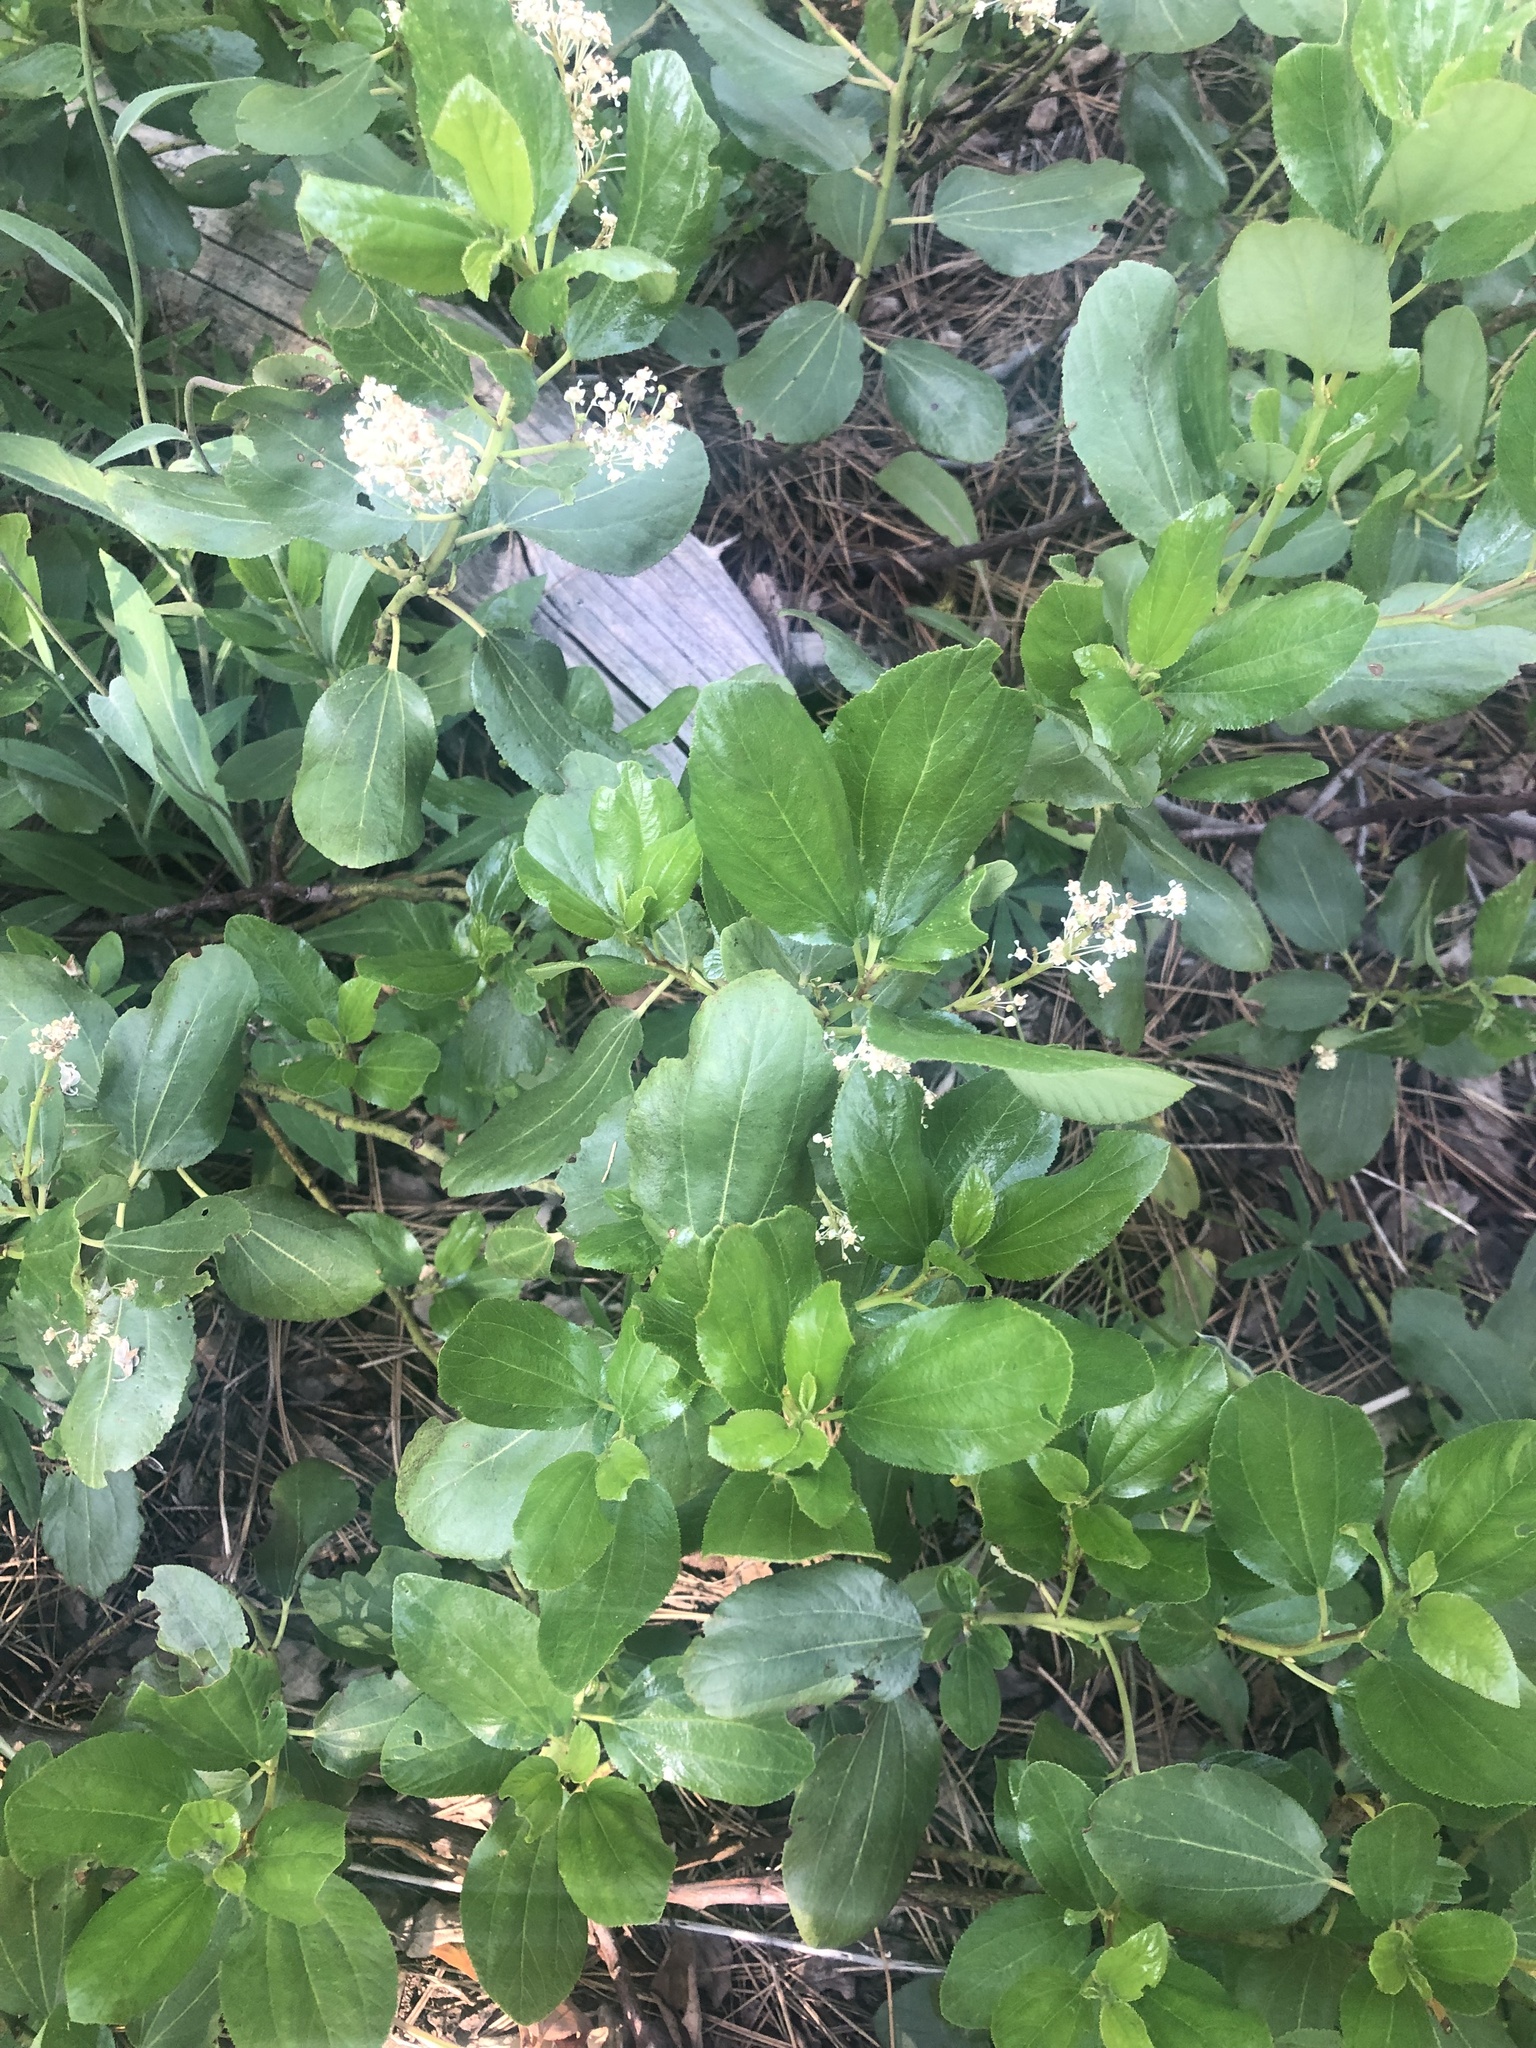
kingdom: Plantae
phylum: Tracheophyta
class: Magnoliopsida
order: Rosales
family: Rhamnaceae
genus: Ceanothus
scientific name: Ceanothus velutinus
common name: Snowbrush
